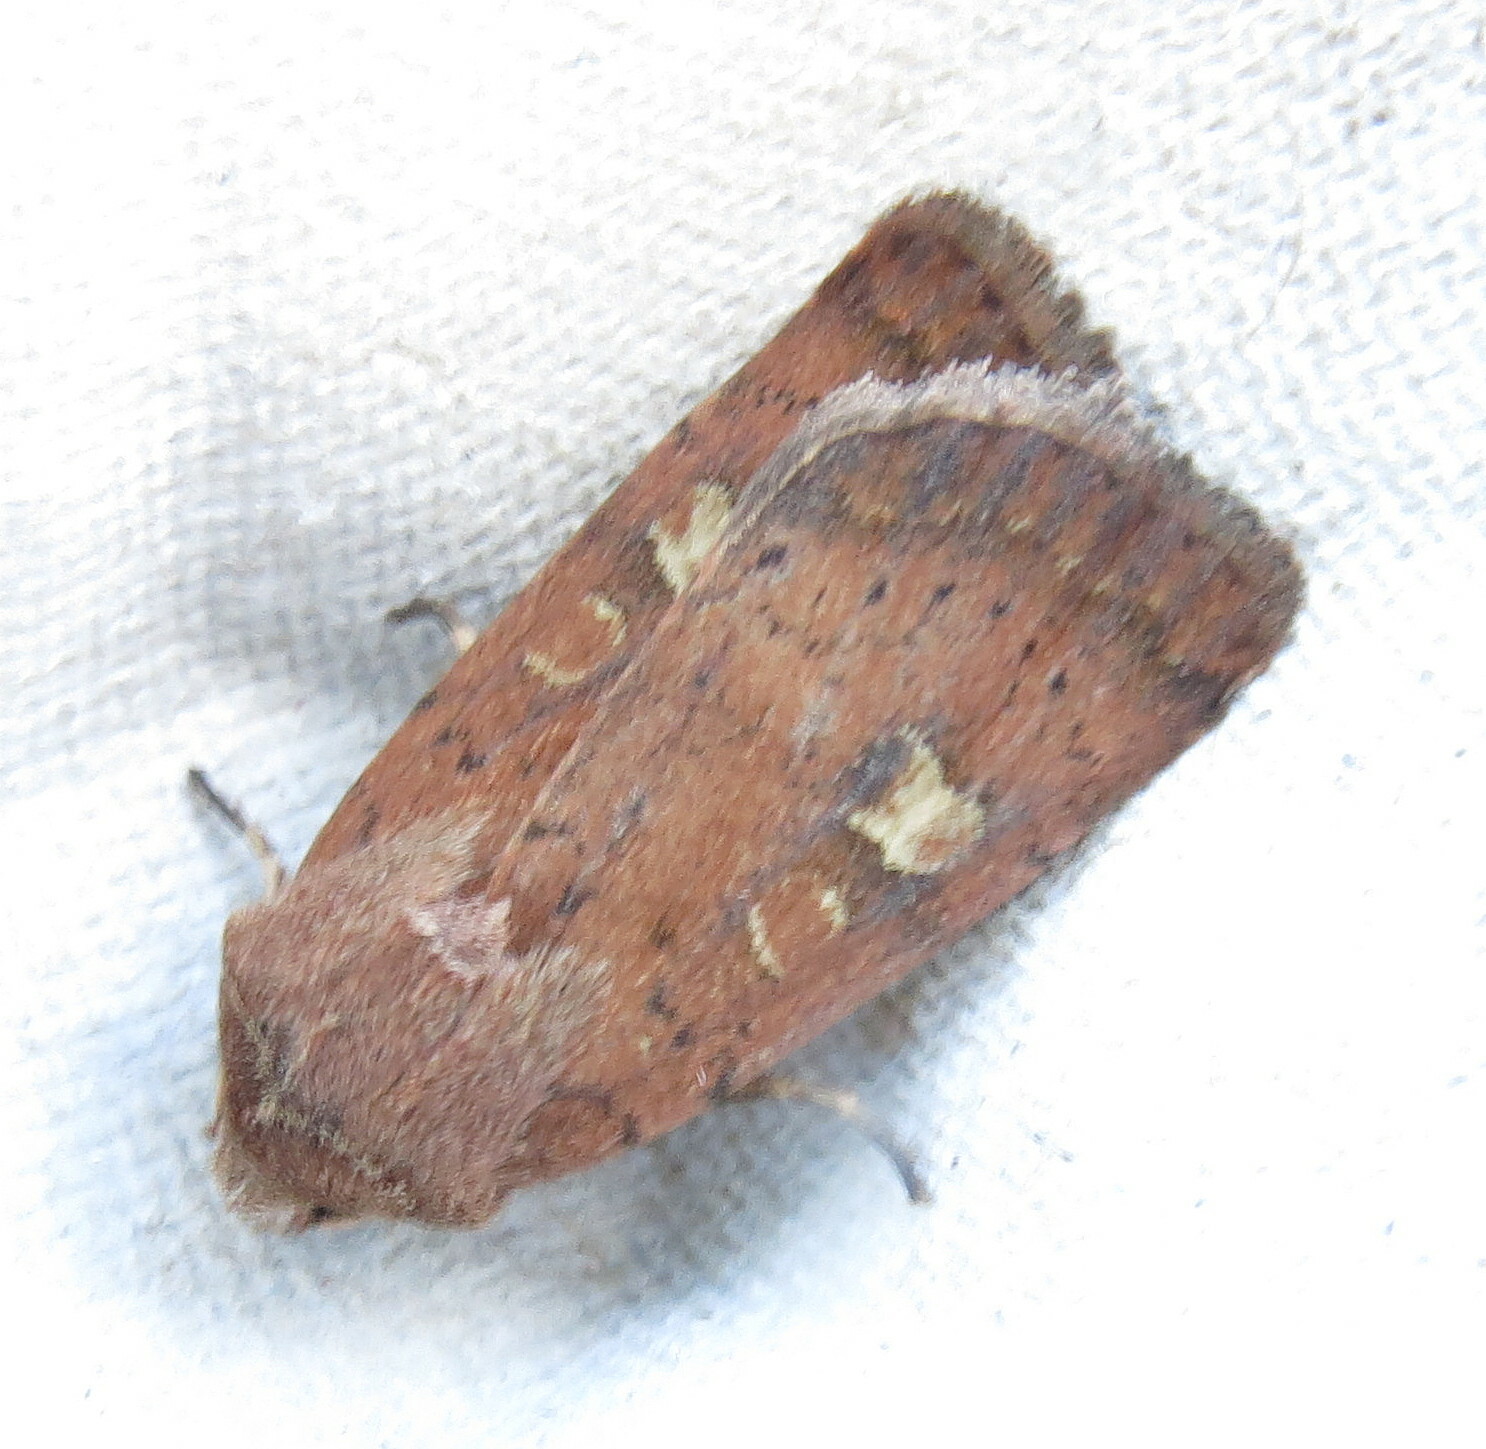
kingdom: Animalia
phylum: Arthropoda
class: Insecta
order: Lepidoptera
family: Noctuidae
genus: Xestia
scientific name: Xestia xanthographa
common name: Square-spot rustic
